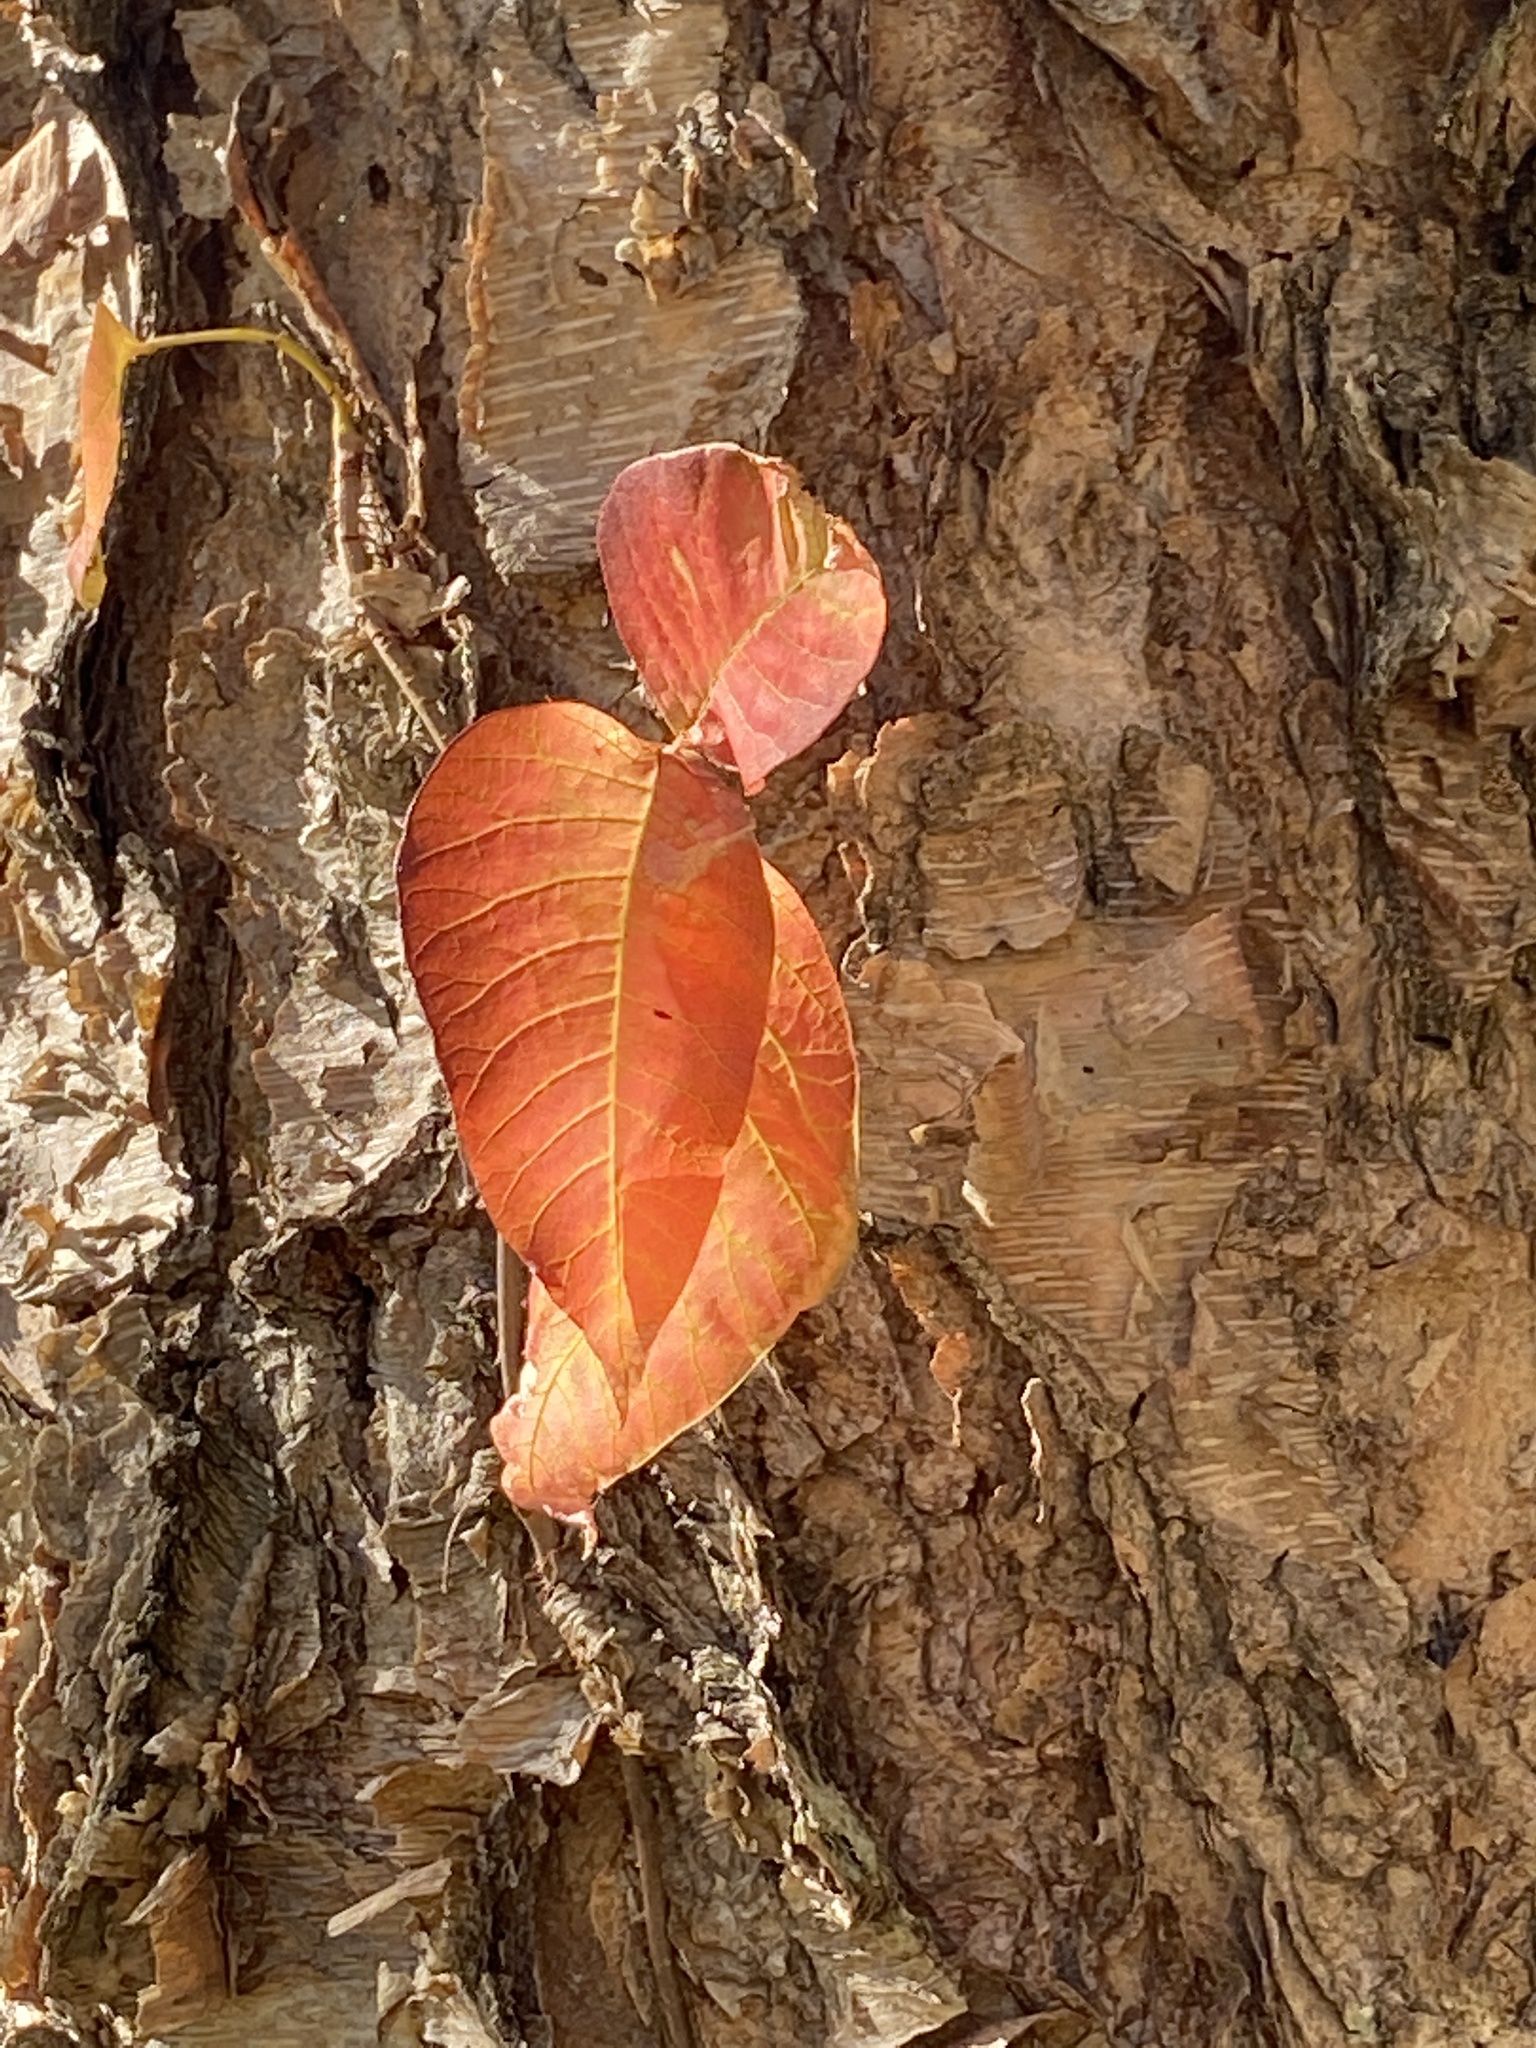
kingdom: Plantae
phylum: Tracheophyta
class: Magnoliopsida
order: Sapindales
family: Anacardiaceae
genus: Toxicodendron
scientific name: Toxicodendron radicans
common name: Poison ivy
